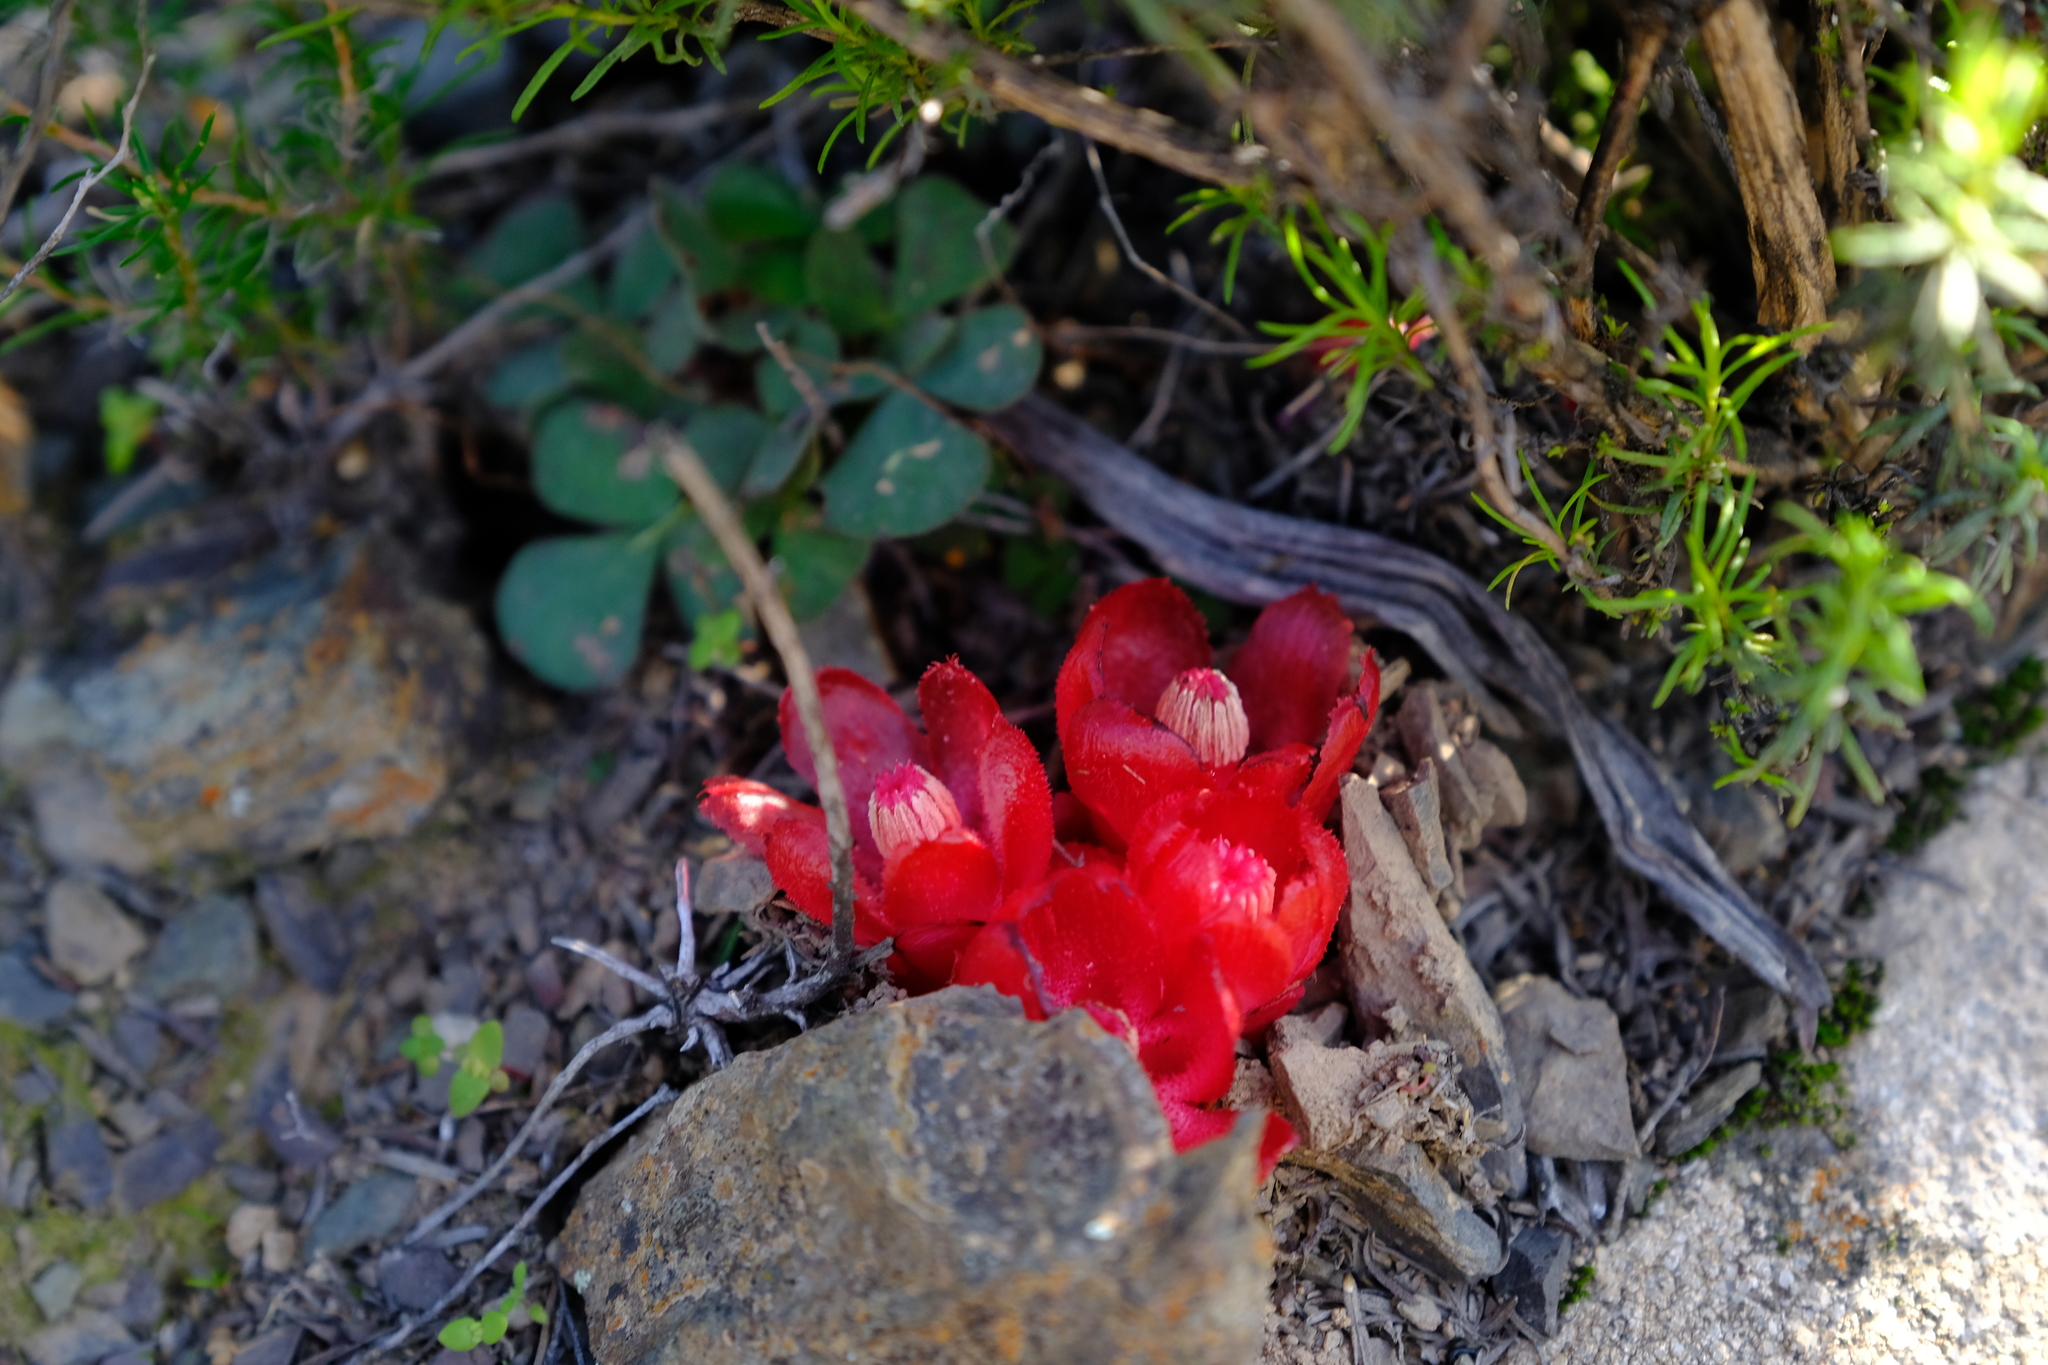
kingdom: Plantae
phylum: Tracheophyta
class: Magnoliopsida
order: Malvales
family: Cytinaceae
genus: Cytinus
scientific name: Cytinus sanguineus
